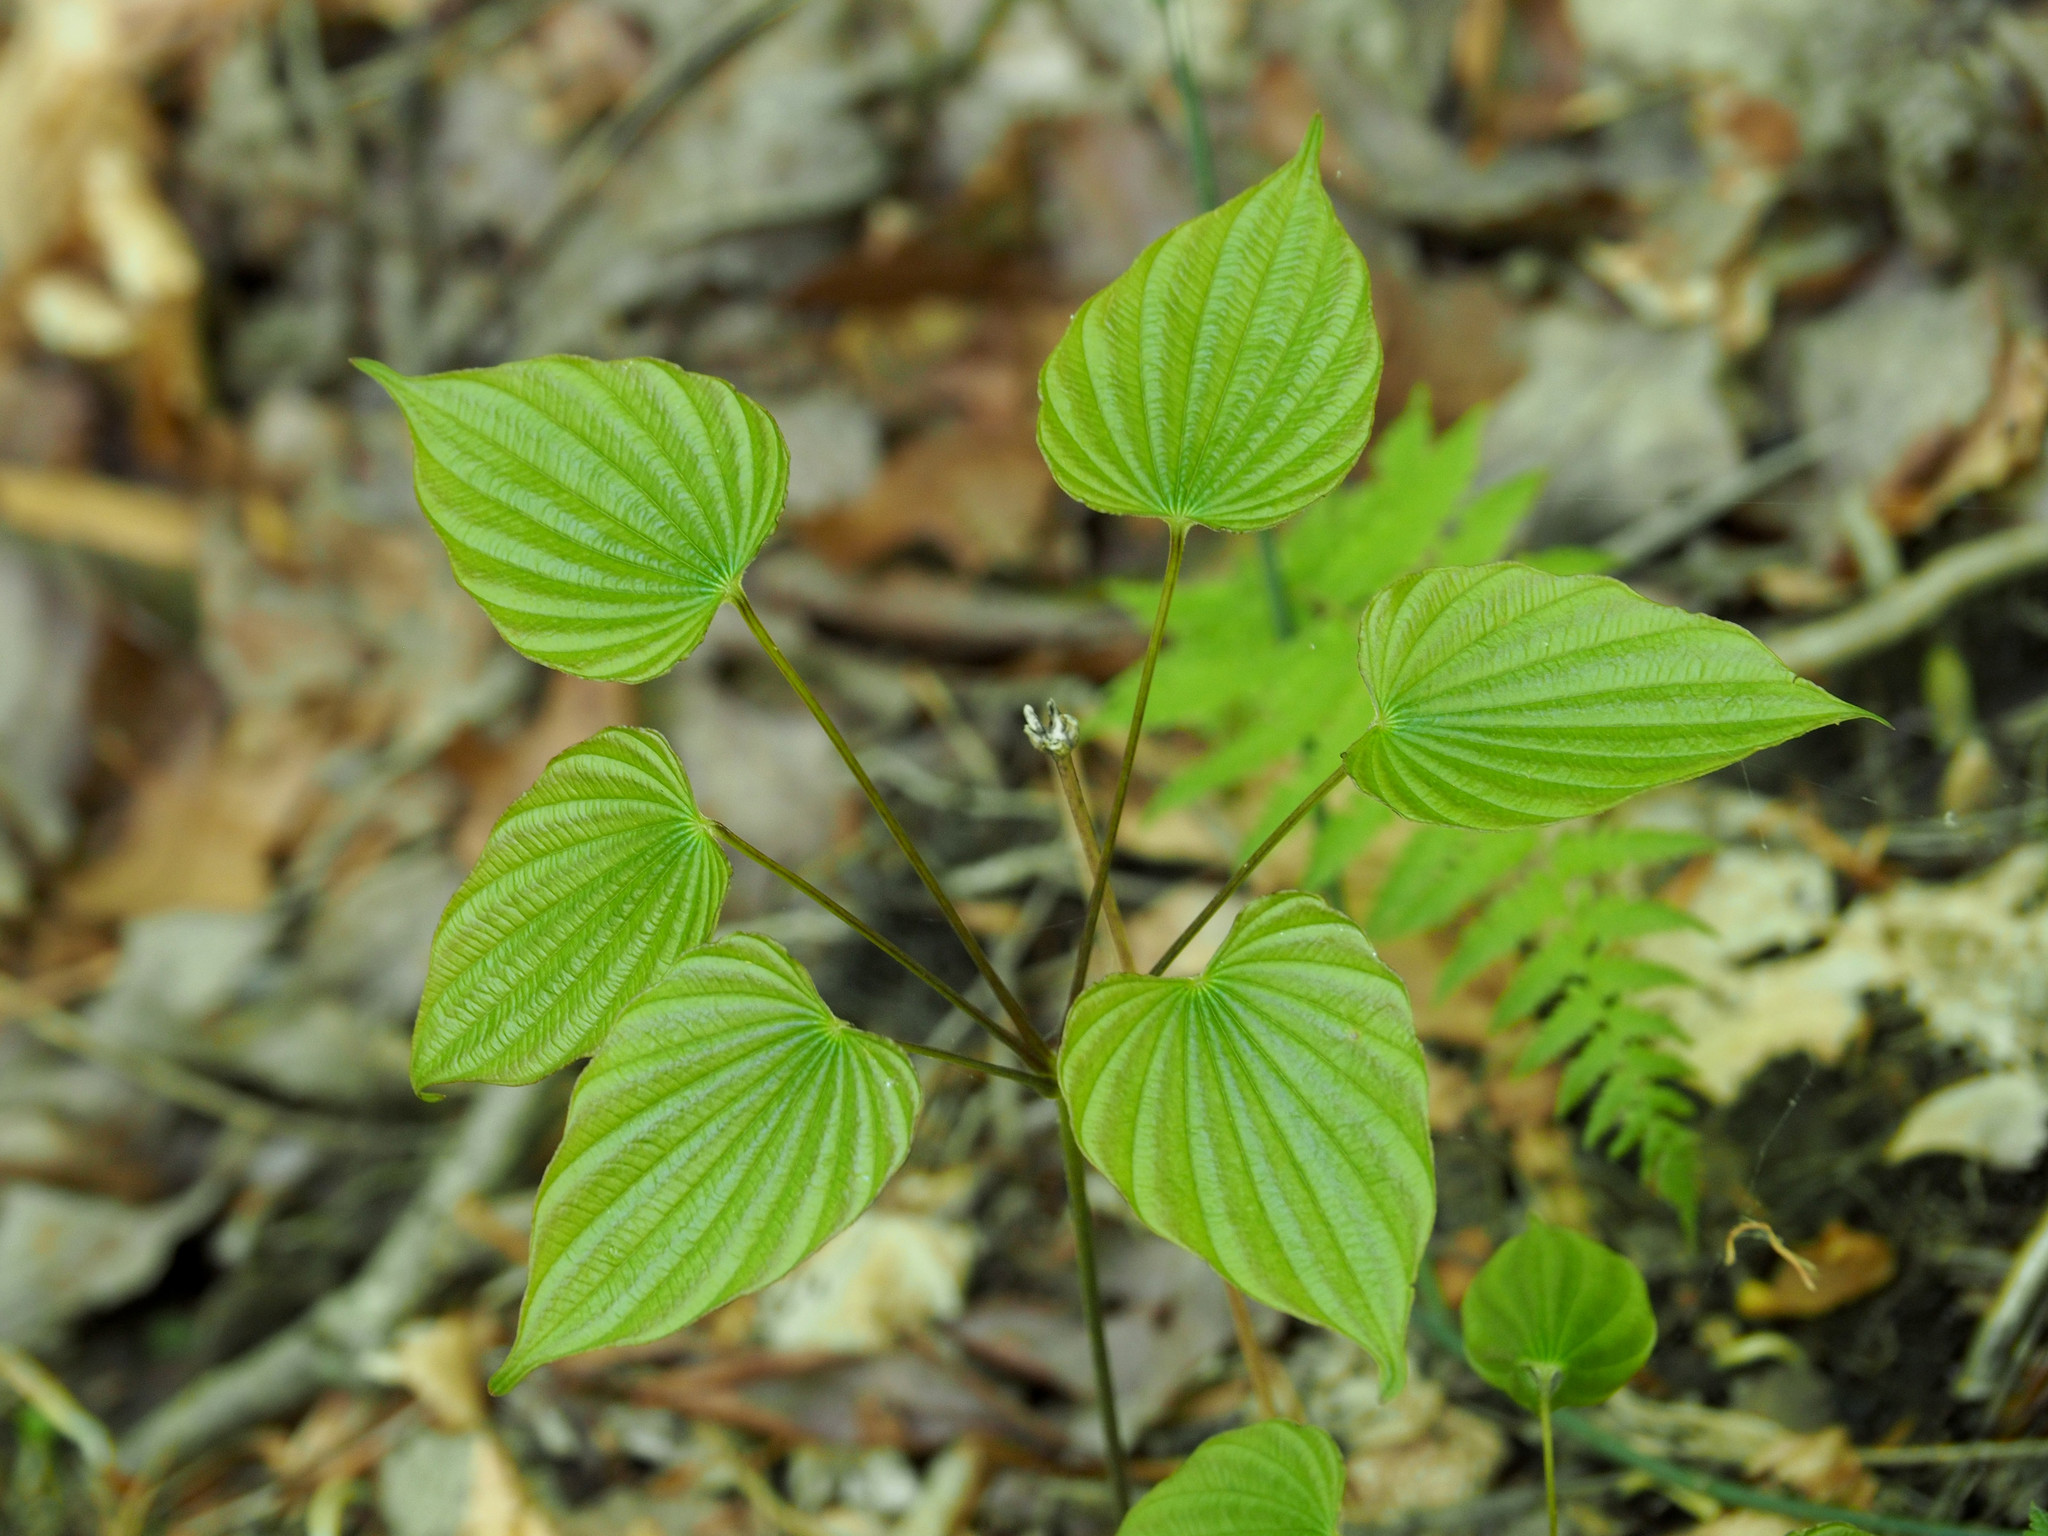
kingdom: Plantae
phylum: Tracheophyta
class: Liliopsida
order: Dioscoreales
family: Dioscoreaceae
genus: Dioscorea
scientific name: Dioscorea villosa
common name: Wild yam
